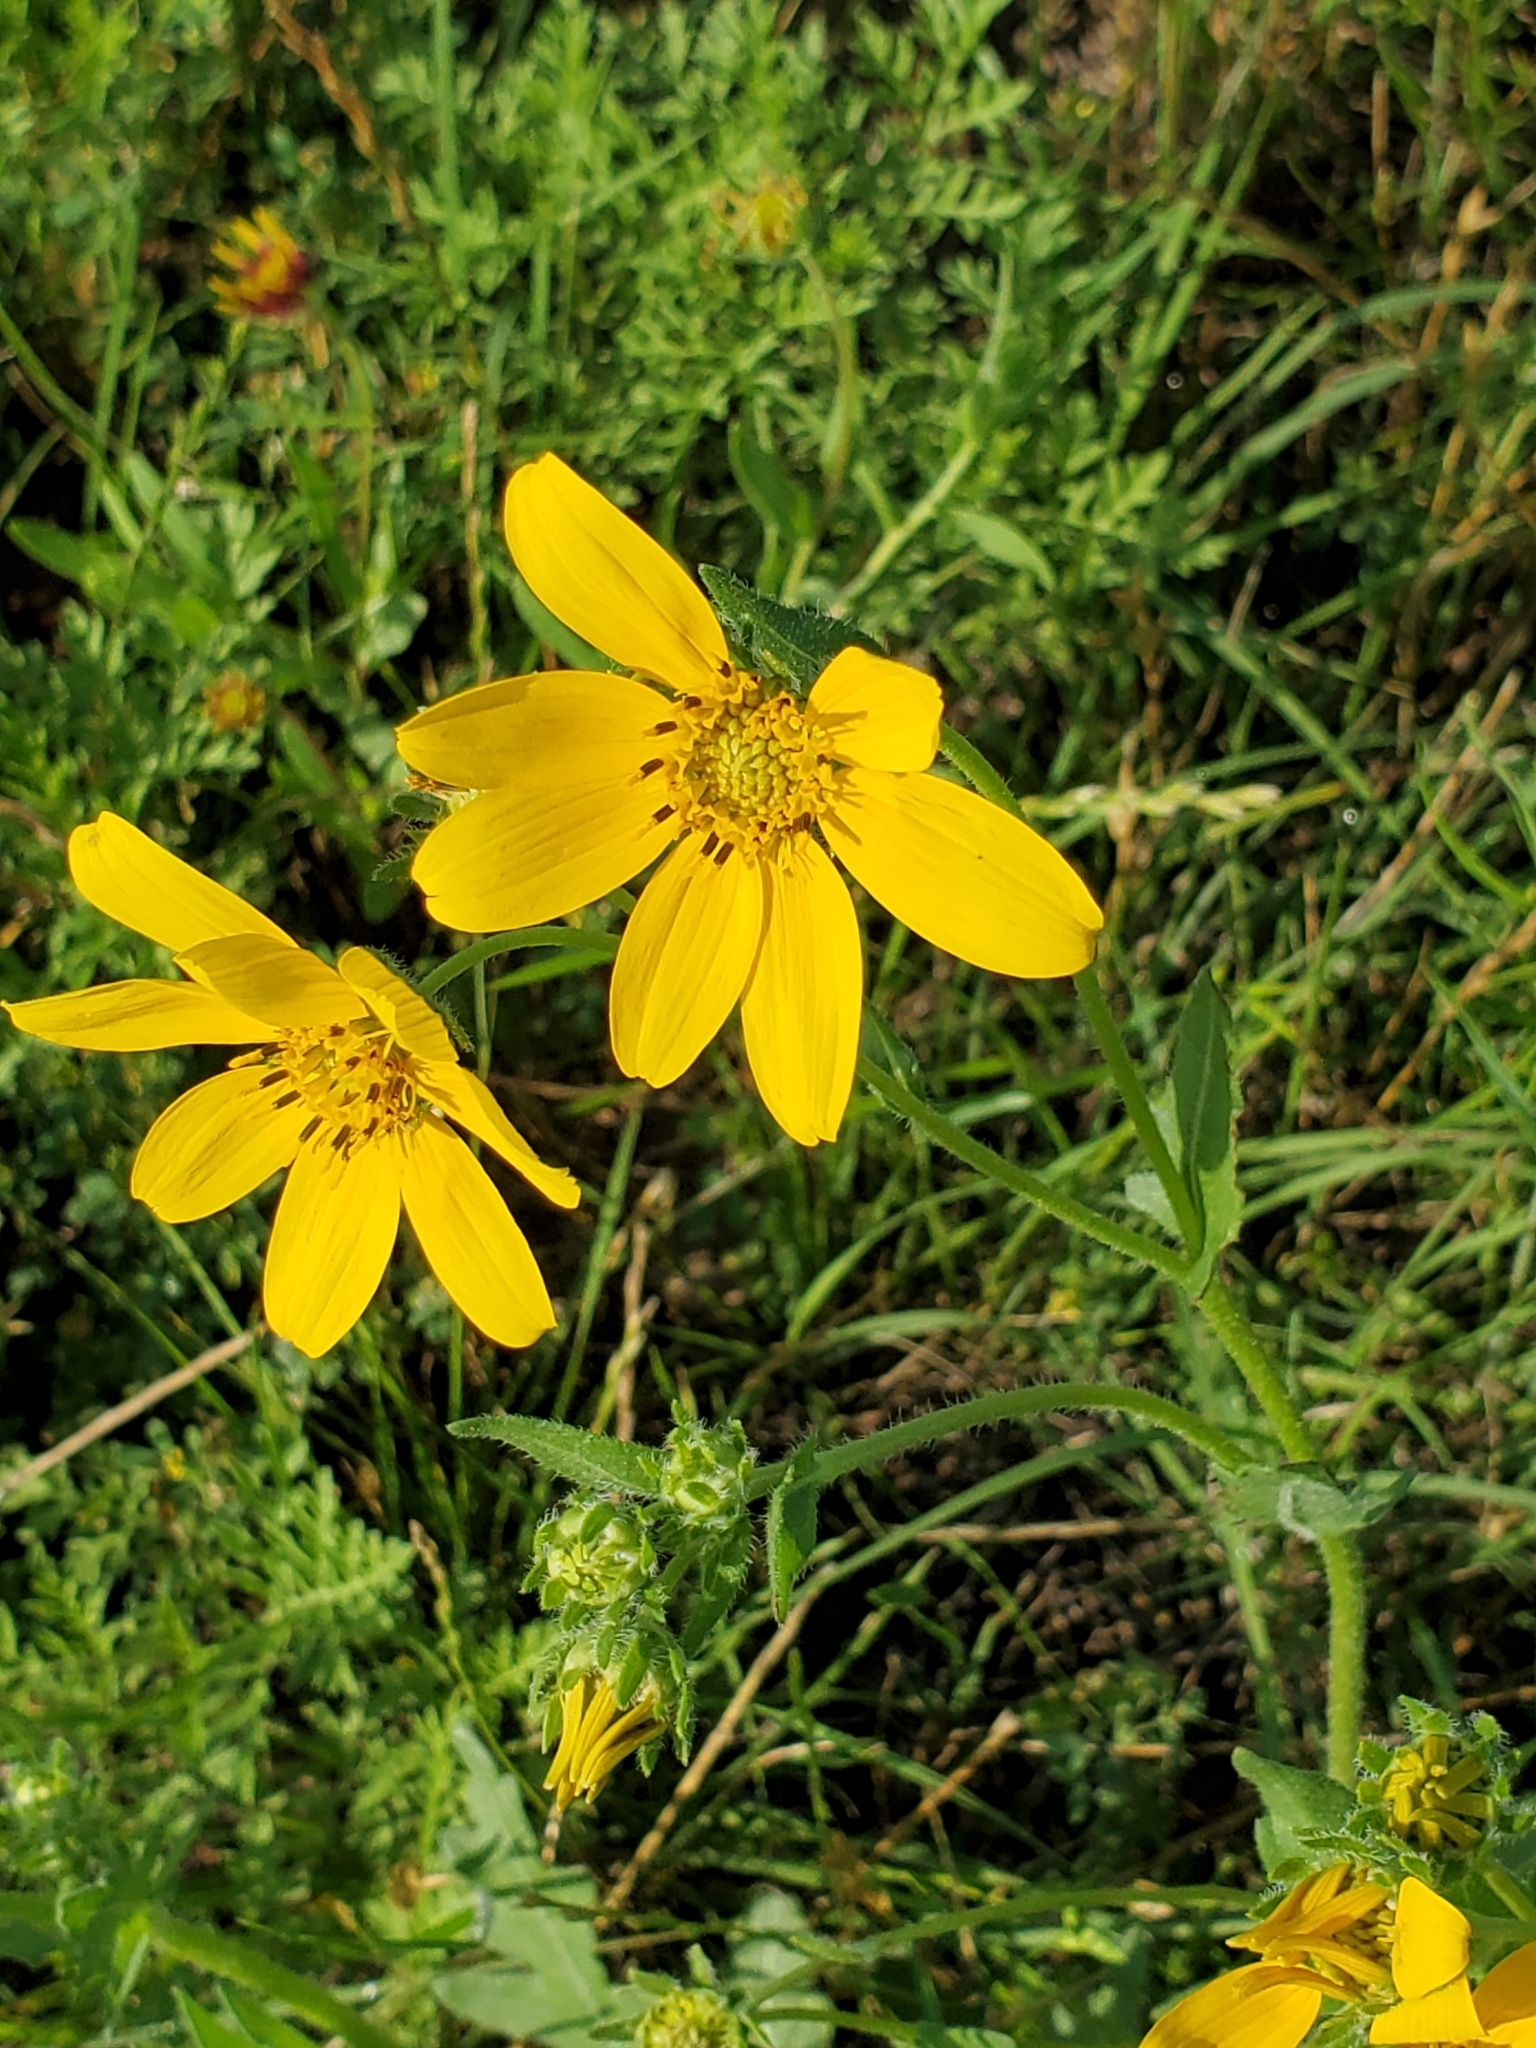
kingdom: Plantae
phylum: Tracheophyta
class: Magnoliopsida
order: Asterales
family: Asteraceae
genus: Engelmannia
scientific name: Engelmannia peristenia
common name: Engelmann's daisy
